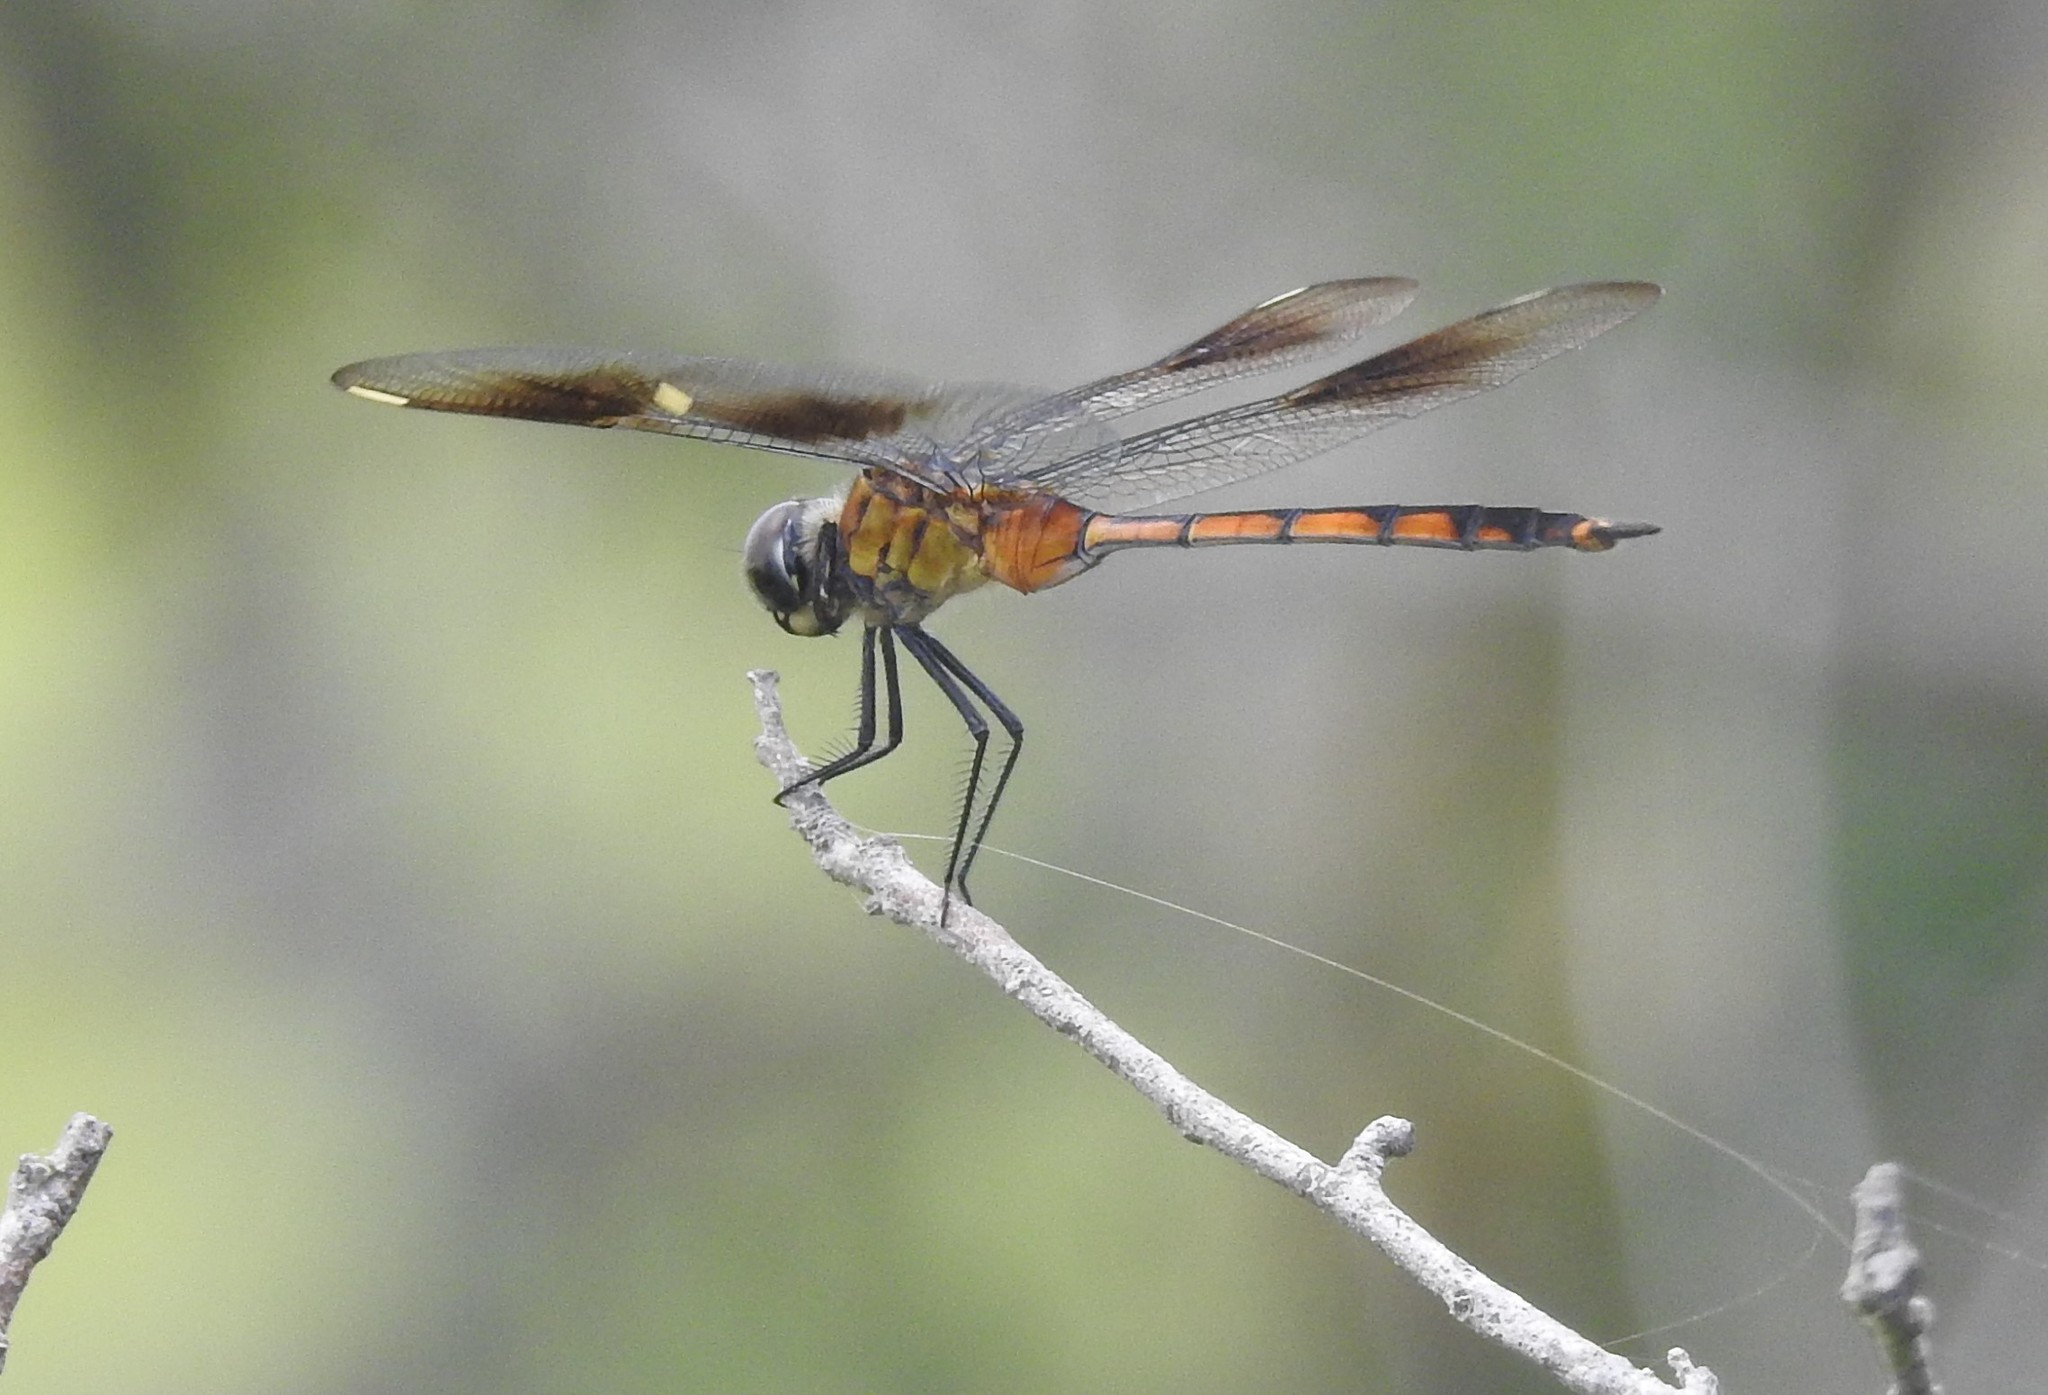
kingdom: Animalia
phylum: Arthropoda
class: Insecta
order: Odonata
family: Libellulidae
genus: Brachymesia
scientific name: Brachymesia gravida
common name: Four-spotted pennant
